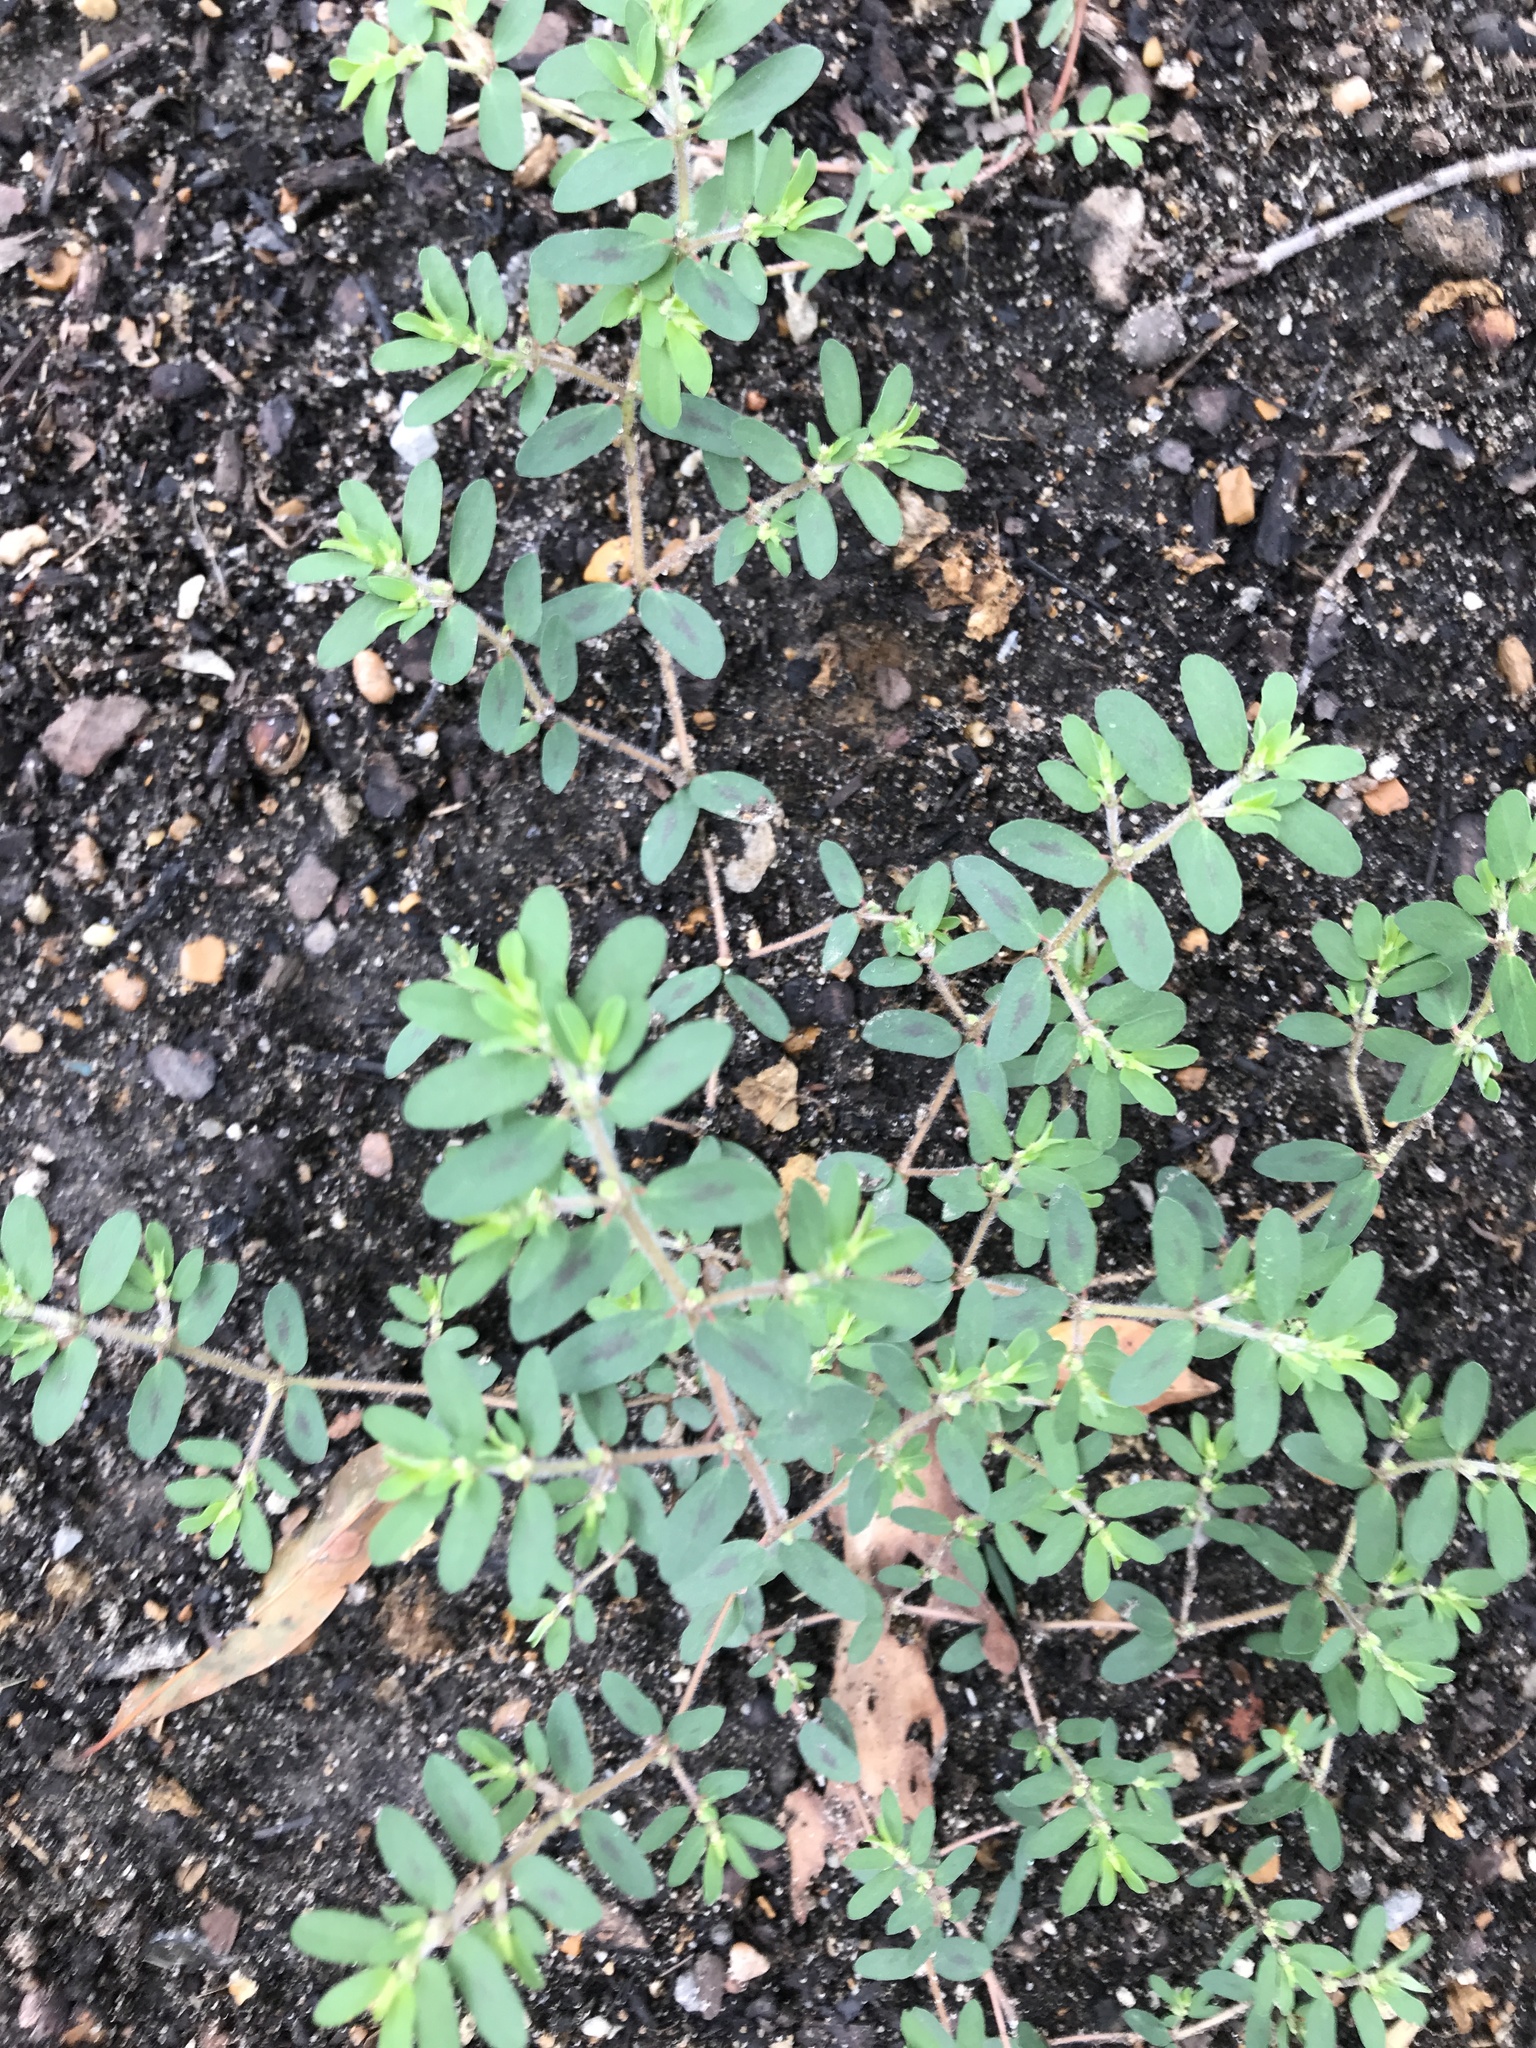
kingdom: Plantae
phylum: Tracheophyta
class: Magnoliopsida
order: Malpighiales
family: Euphorbiaceae
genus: Euphorbia
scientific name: Euphorbia maculata
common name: Spotted spurge
